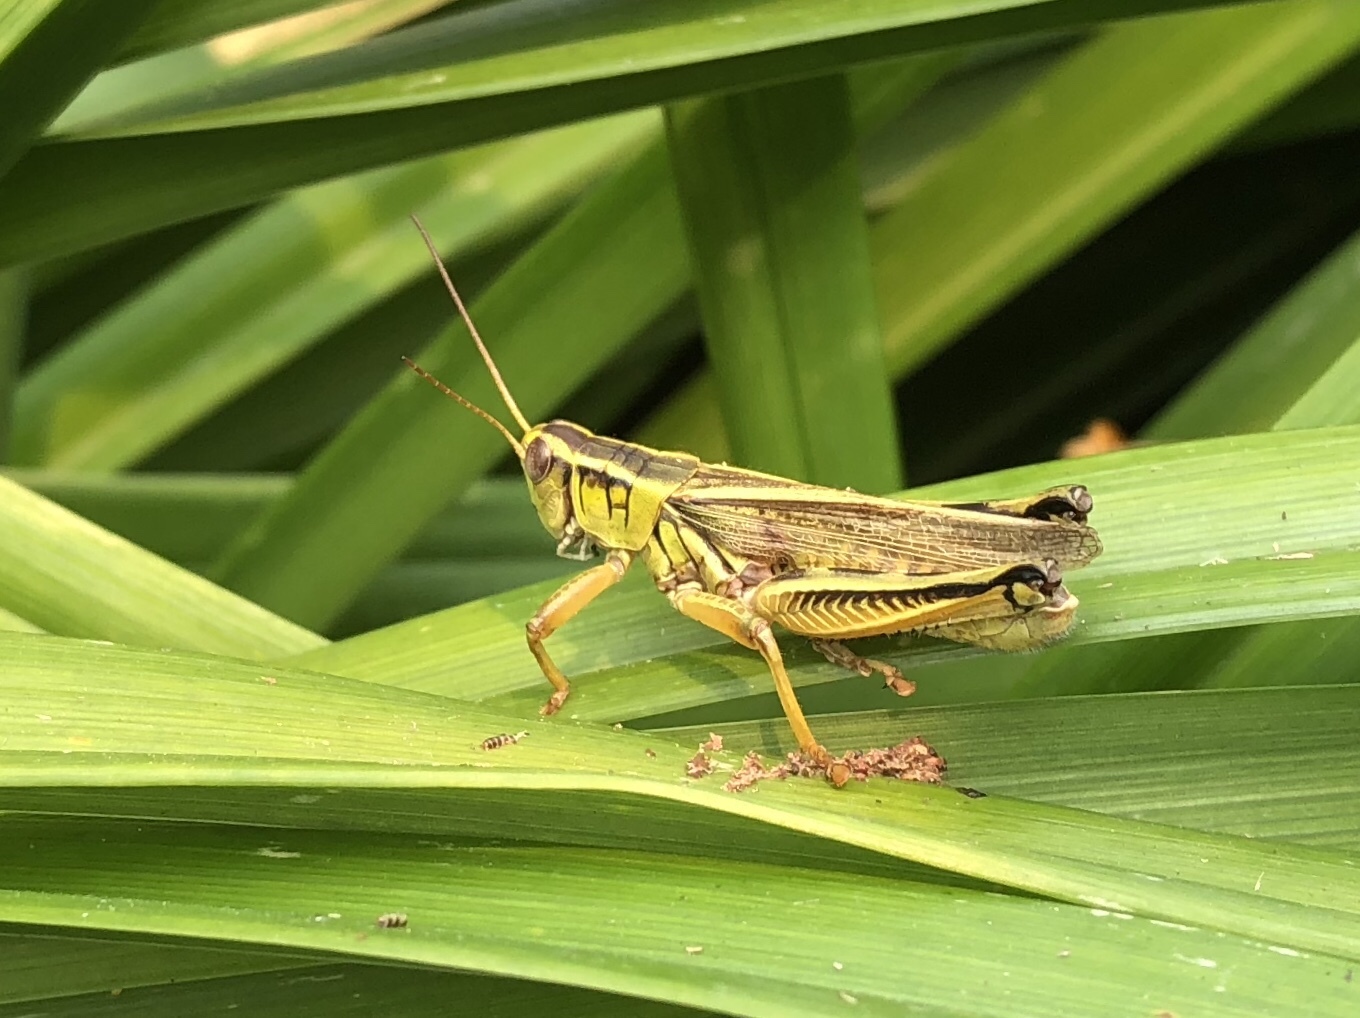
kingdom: Animalia
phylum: Arthropoda
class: Insecta
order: Orthoptera
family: Acrididae
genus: Melanoplus
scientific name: Melanoplus bivittatus
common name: Two-striped grasshopper
